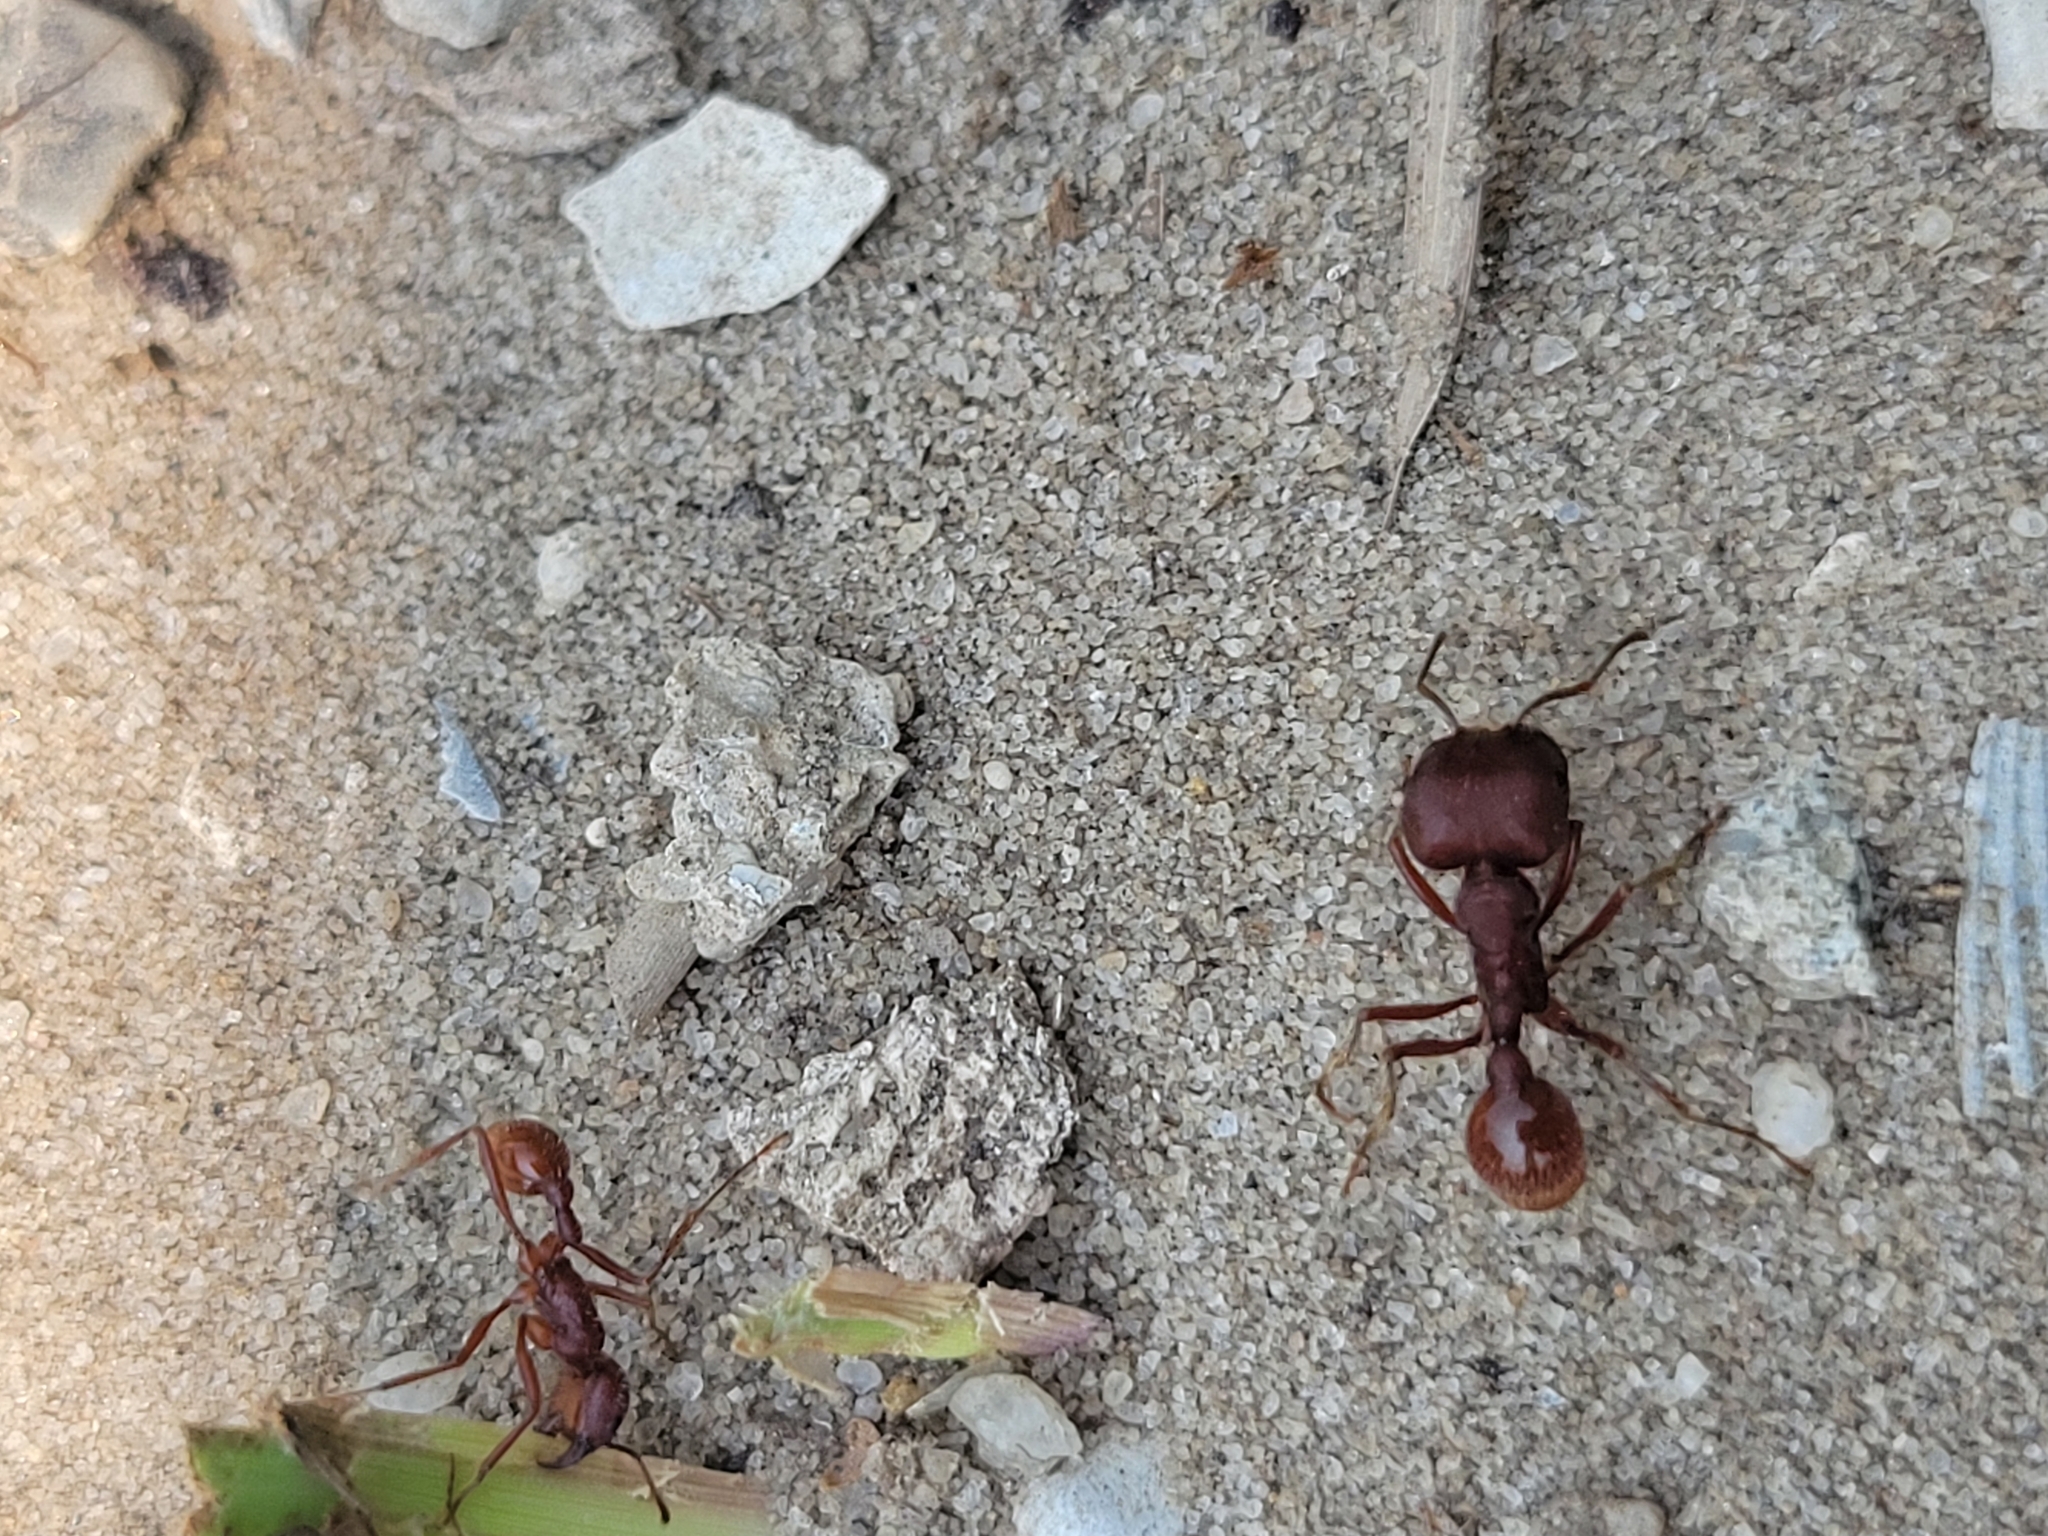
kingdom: Animalia
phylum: Arthropoda
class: Insecta
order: Hymenoptera
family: Formicidae
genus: Pogonomyrmex
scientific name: Pogonomyrmex badius
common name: Florida harvester ant
